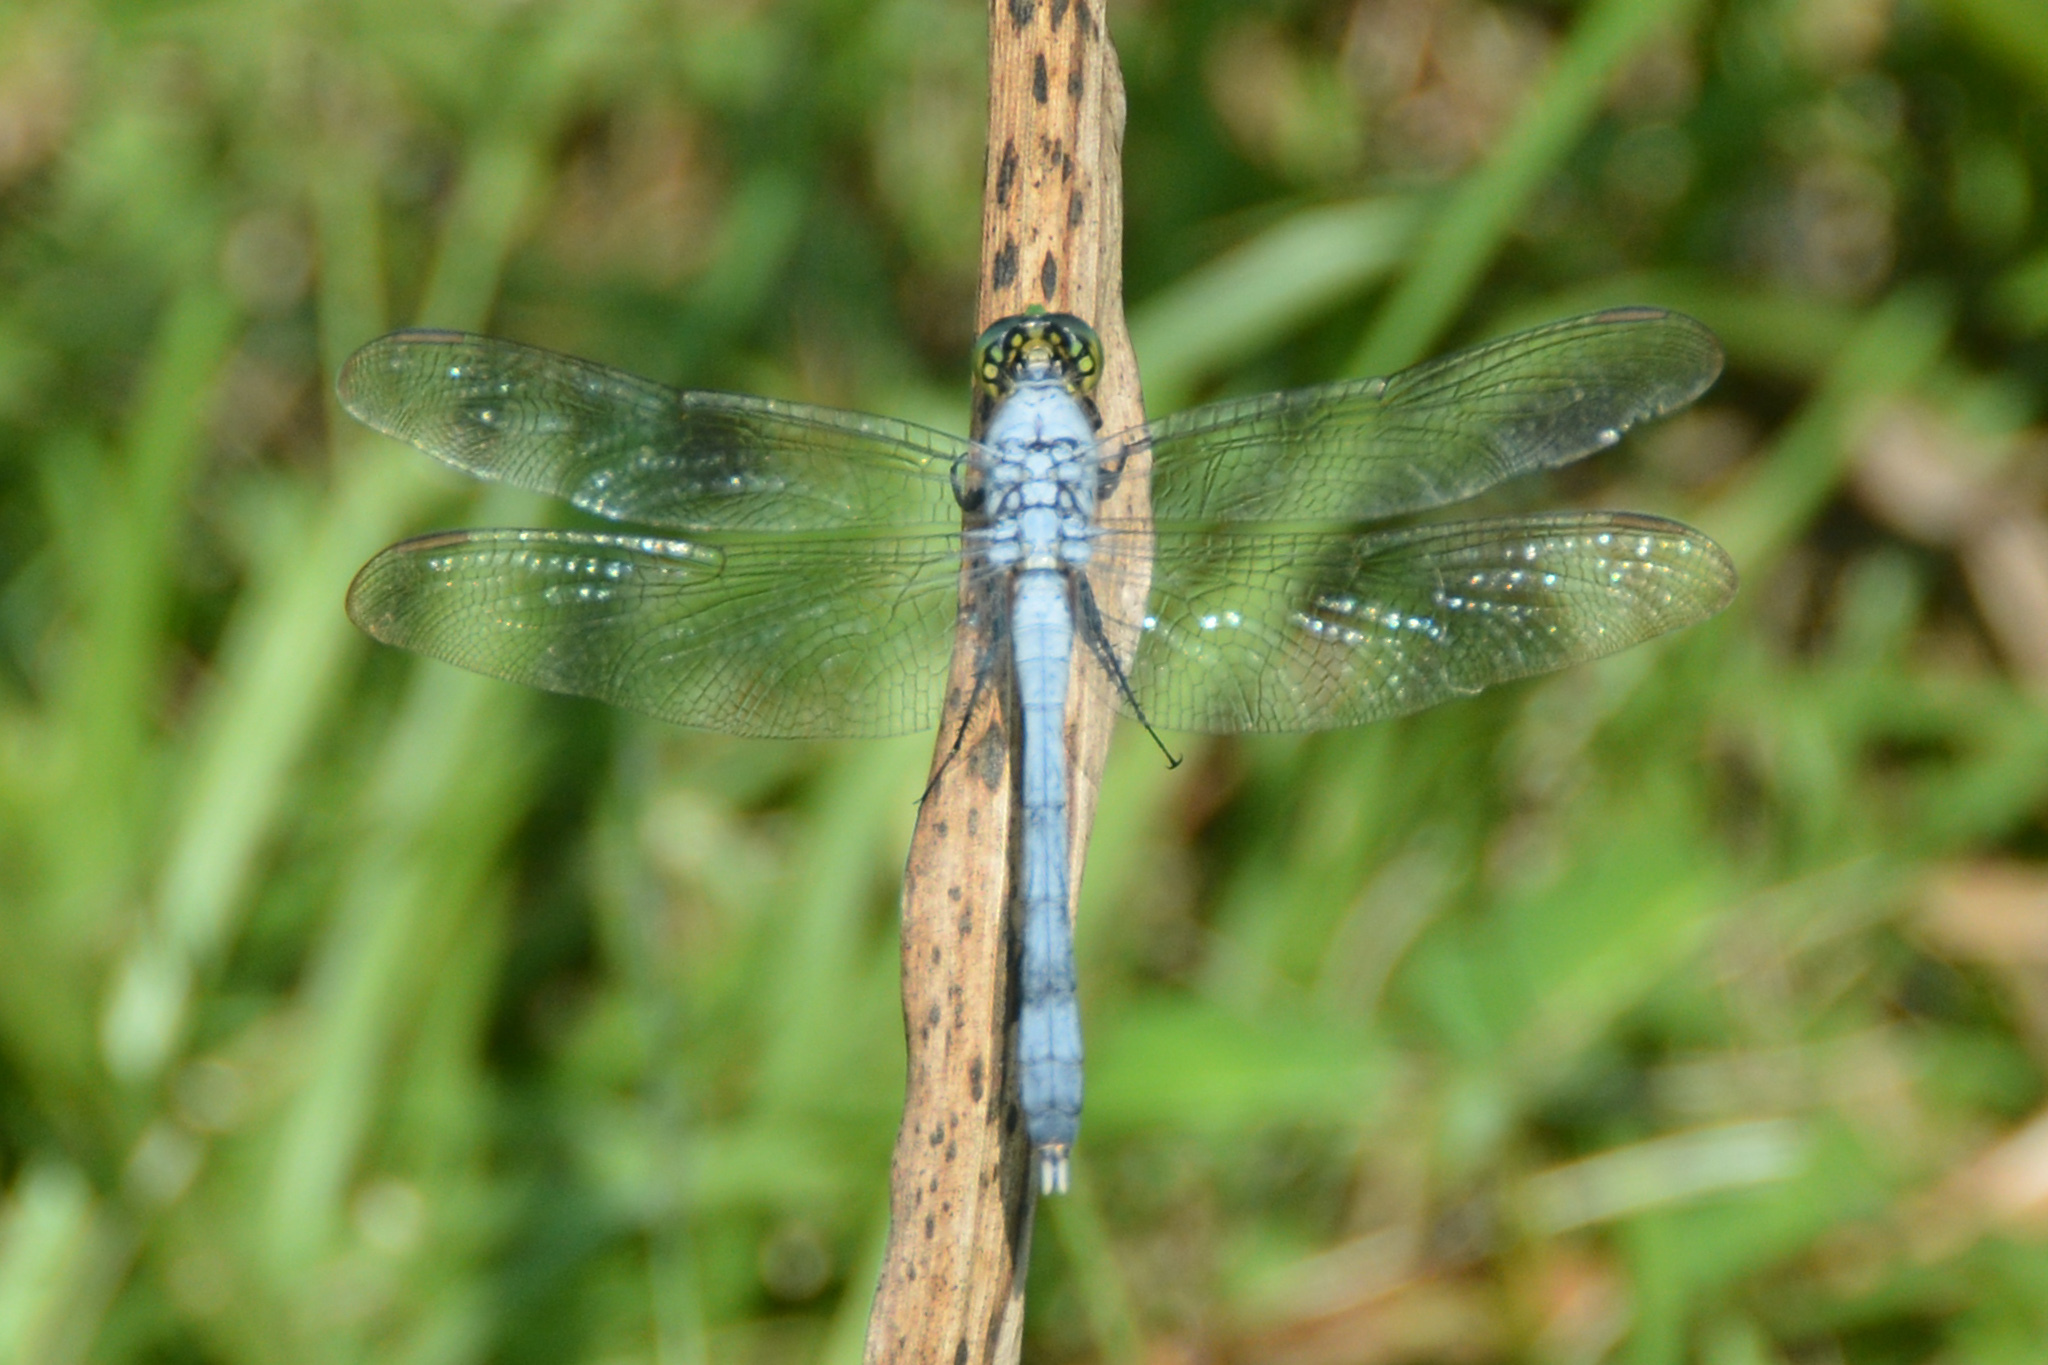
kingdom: Animalia
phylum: Arthropoda
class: Insecta
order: Odonata
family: Libellulidae
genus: Erythemis
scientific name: Erythemis simplicicollis
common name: Eastern pondhawk
